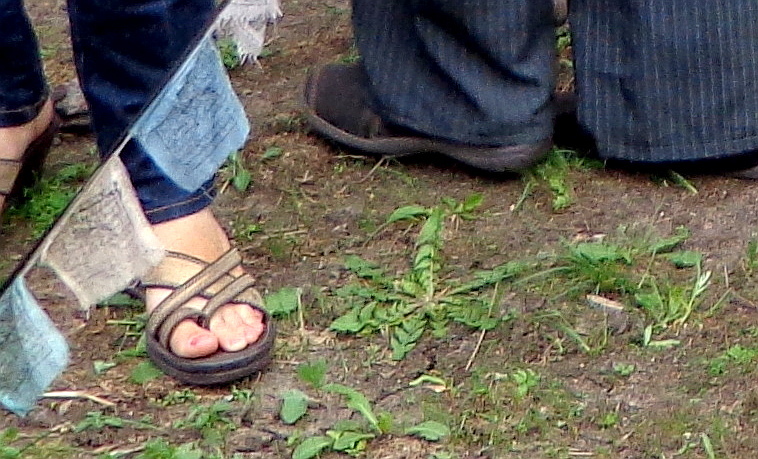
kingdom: Plantae
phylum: Tracheophyta
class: Magnoliopsida
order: Asterales
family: Asteraceae
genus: Taraxacum
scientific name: Taraxacum officinale
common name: Common dandelion
